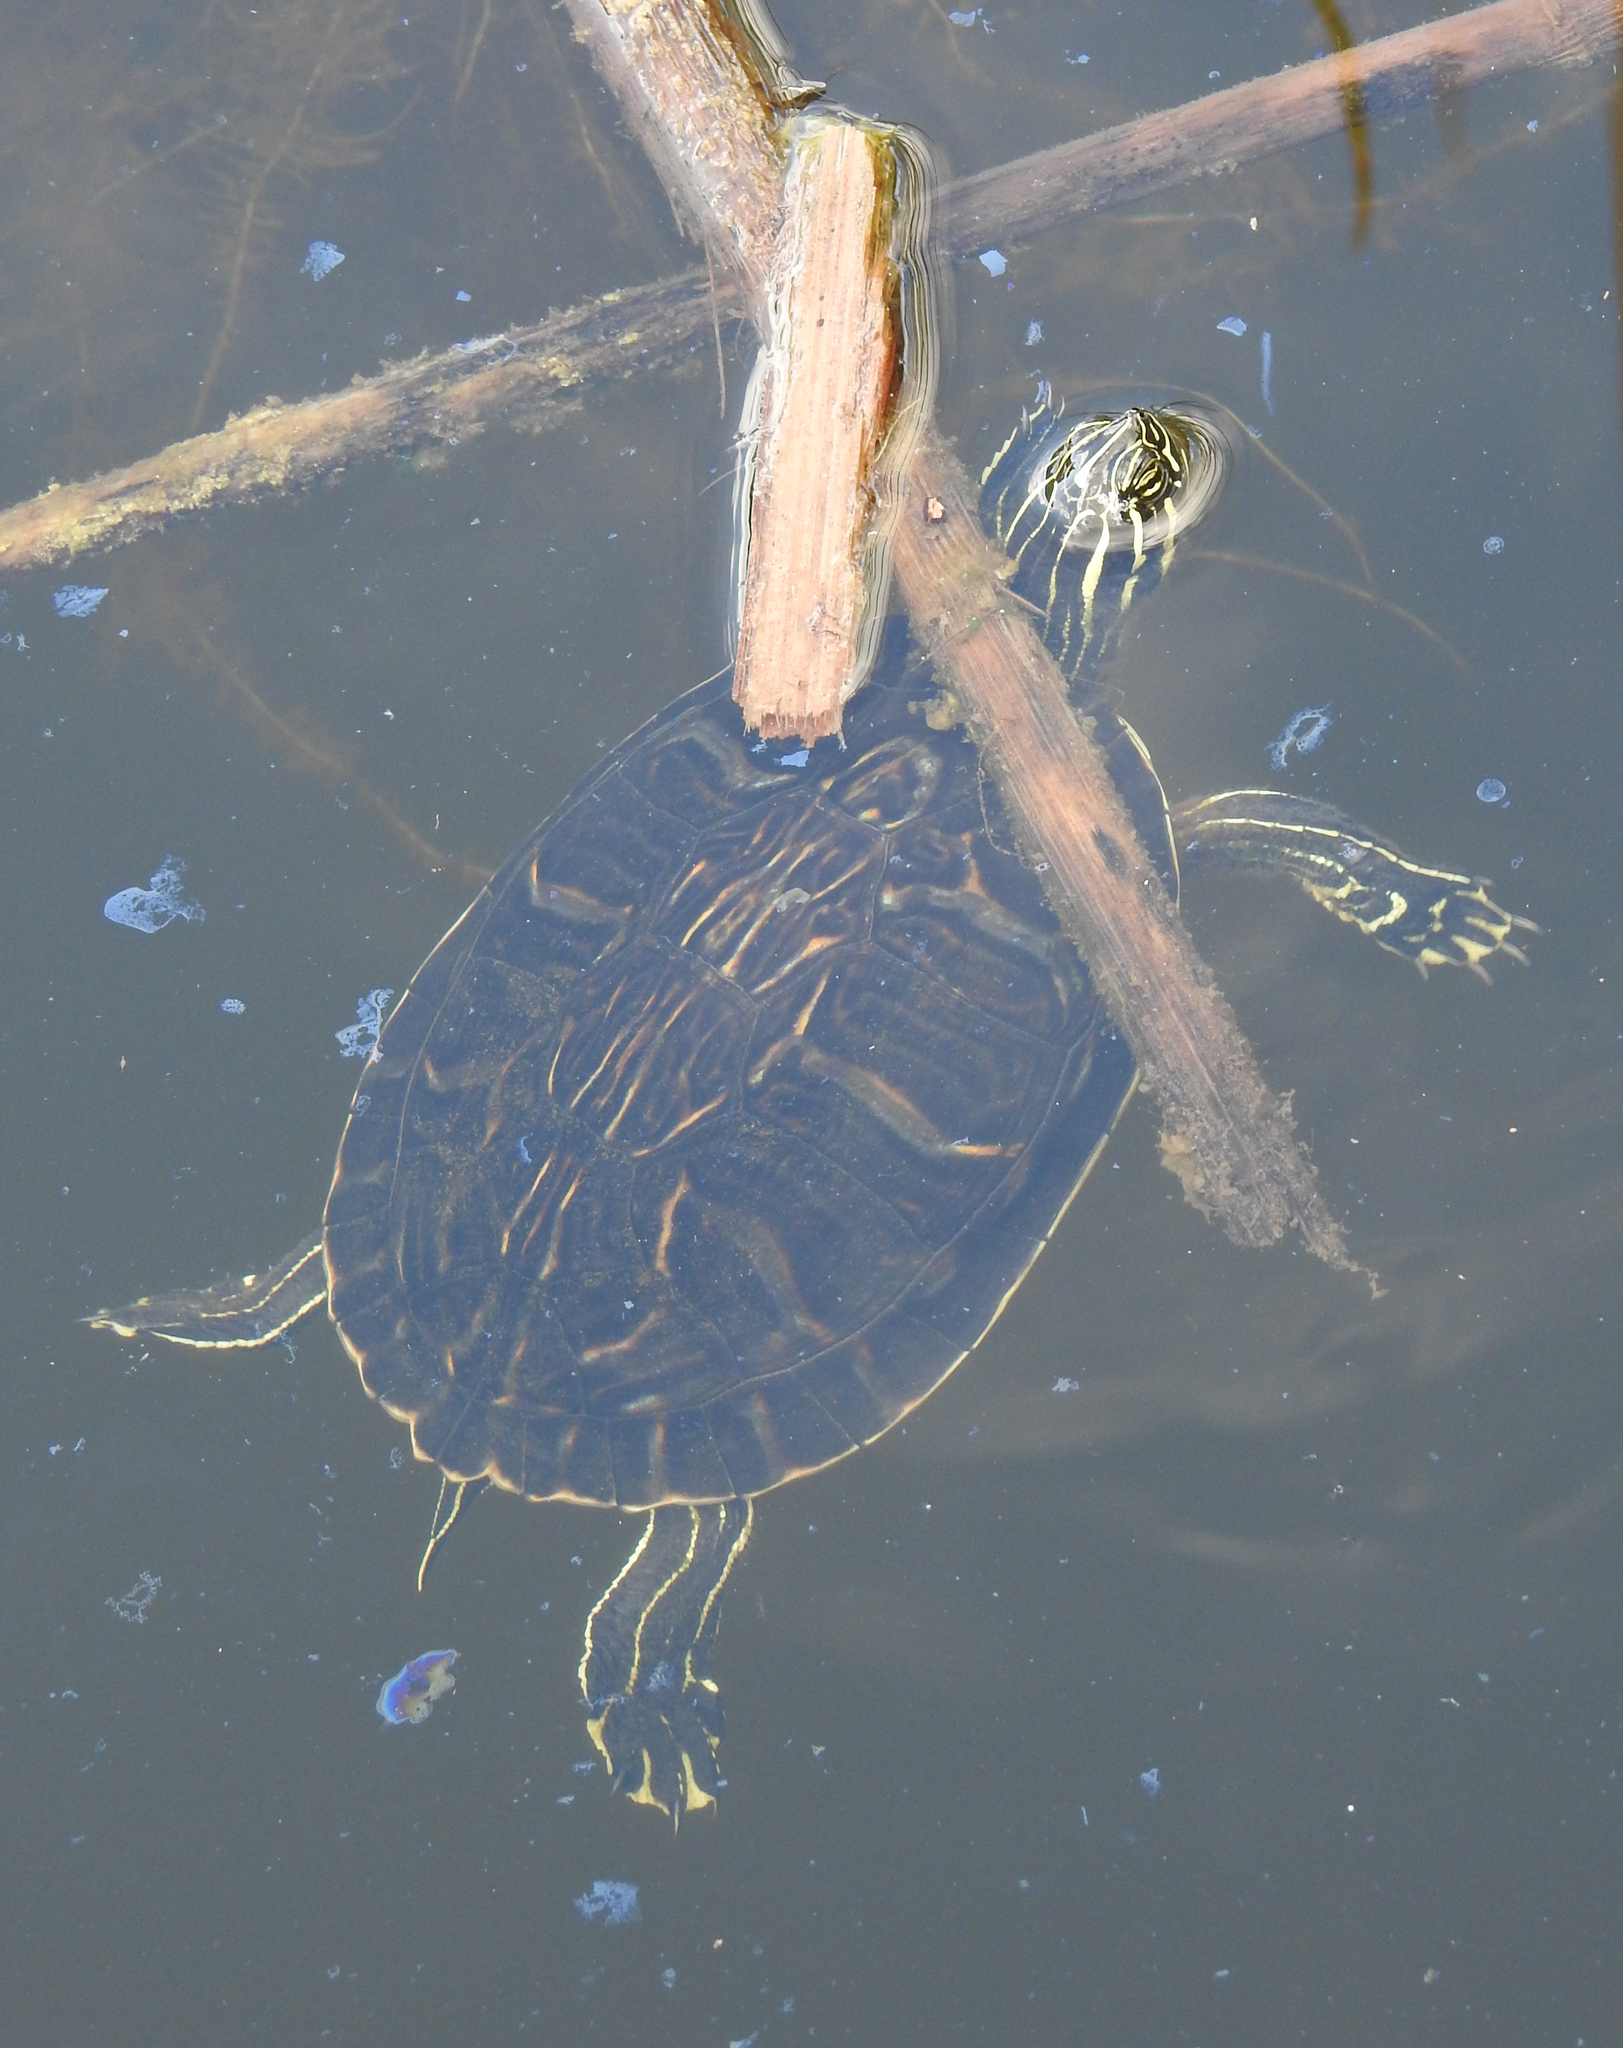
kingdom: Animalia
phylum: Chordata
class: Testudines
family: Emydidae
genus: Pseudemys
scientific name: Pseudemys peninsularis
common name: Peninsula cooter
